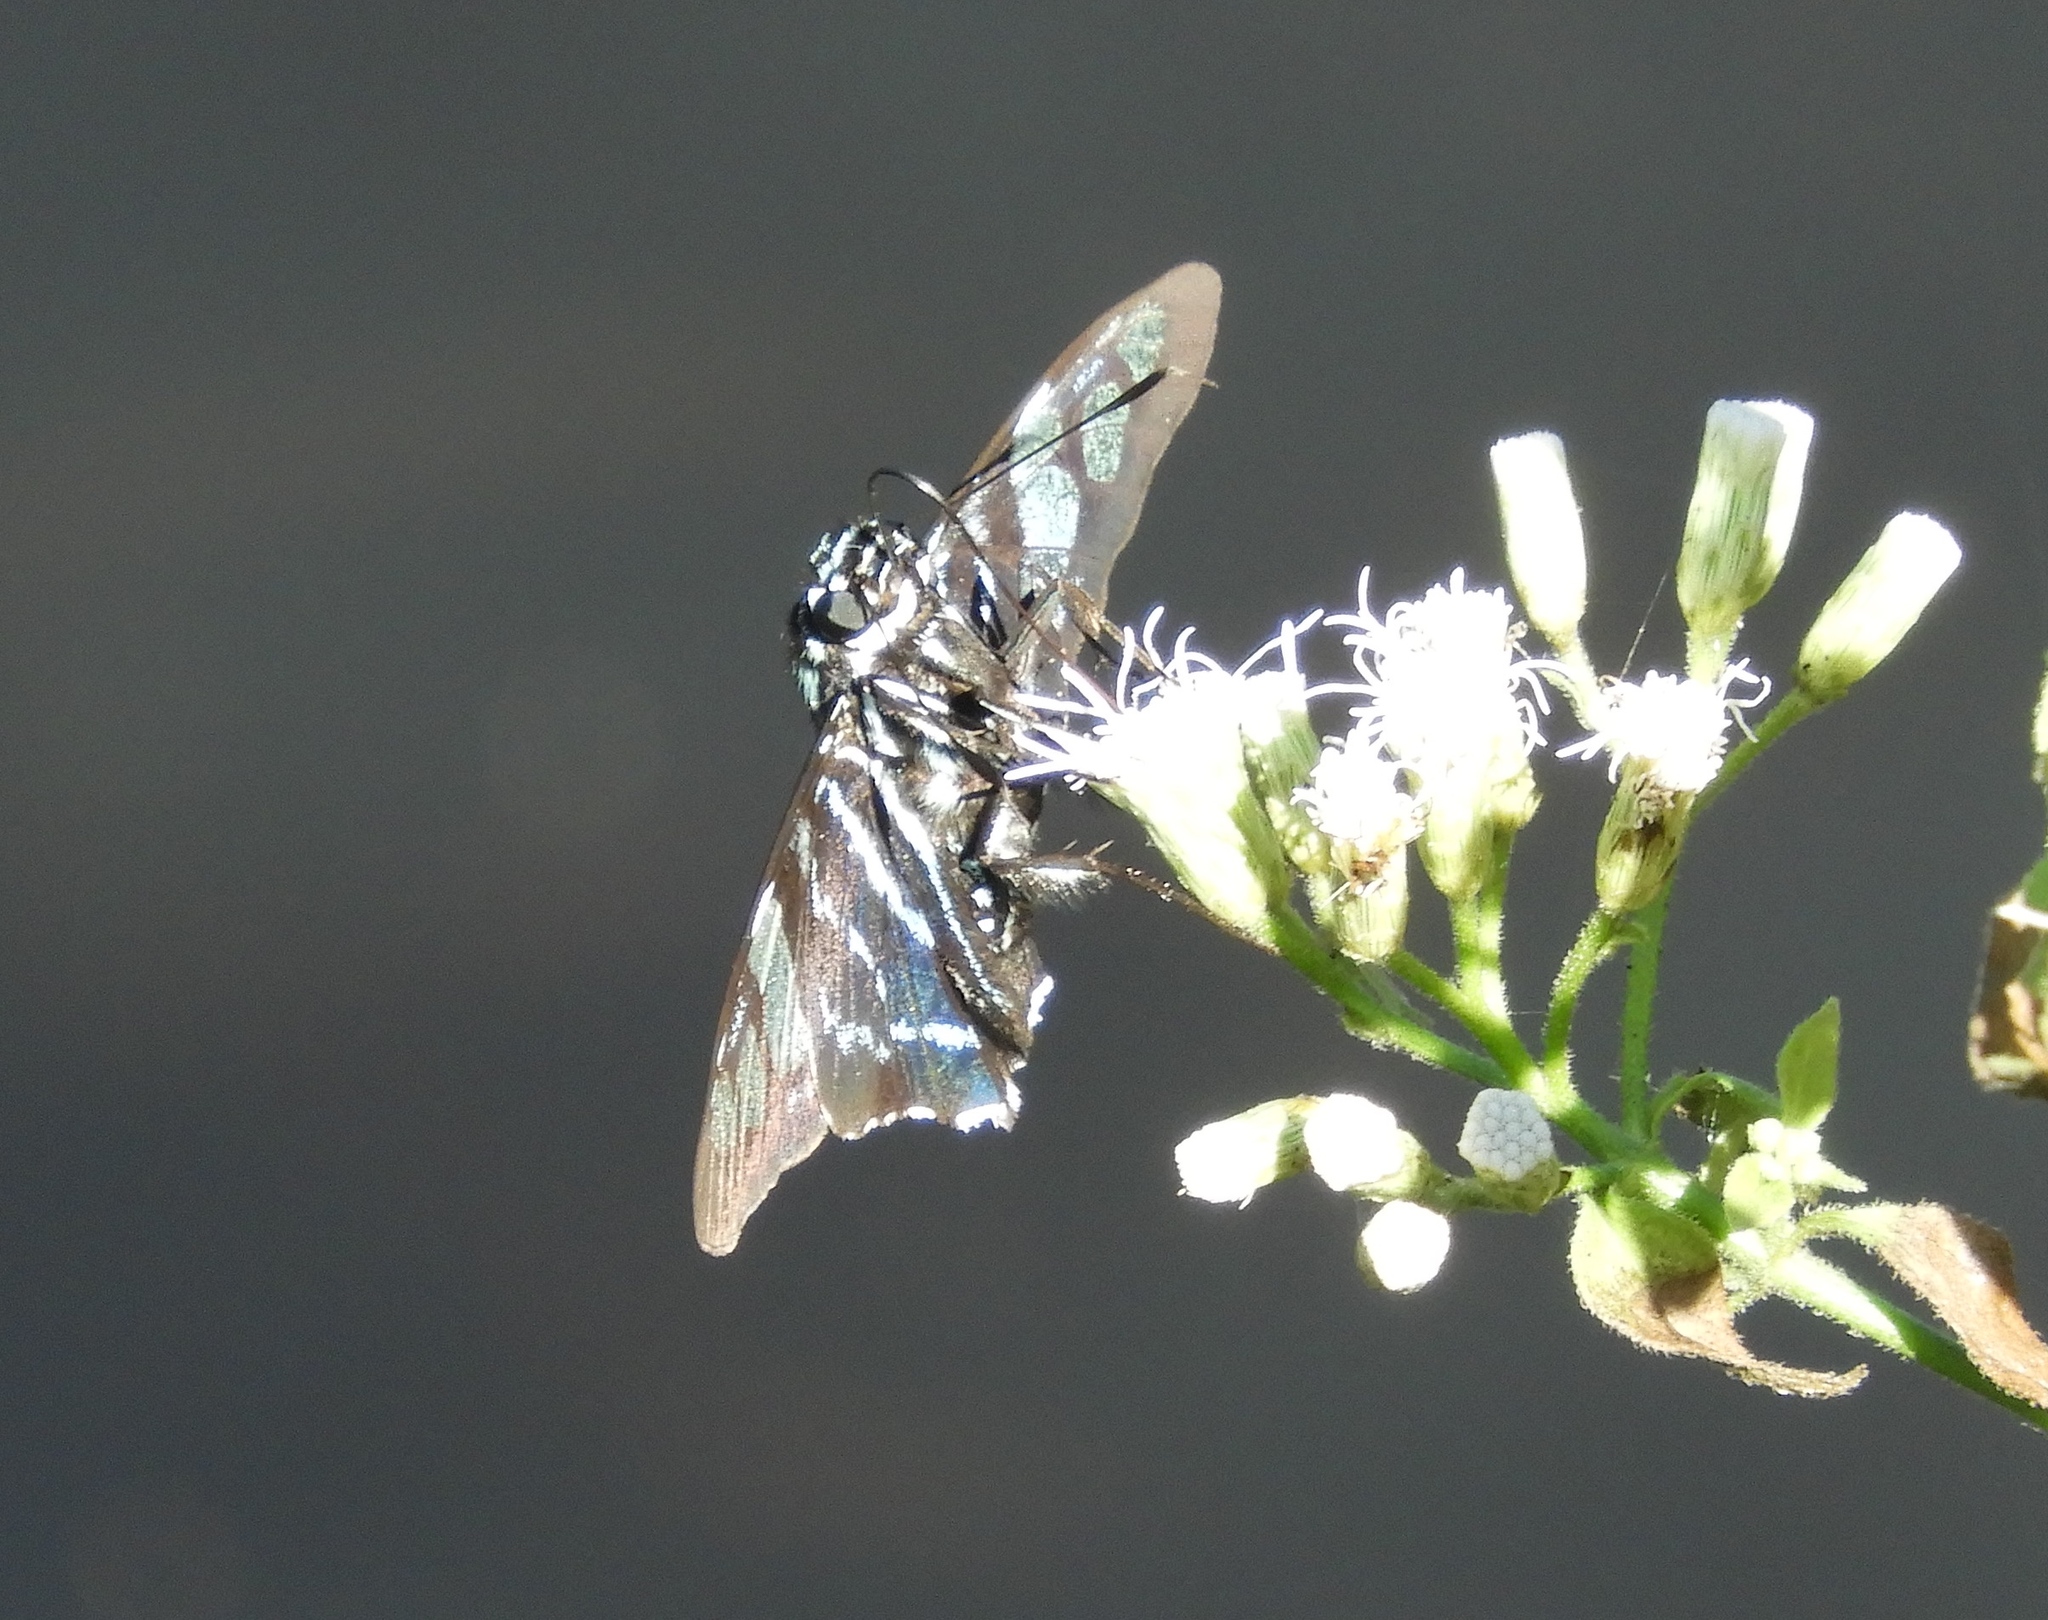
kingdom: Animalia
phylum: Arthropoda
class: Insecta
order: Lepidoptera
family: Hesperiidae
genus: Phocides
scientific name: Phocides pigmalion
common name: Mangrove skipper
